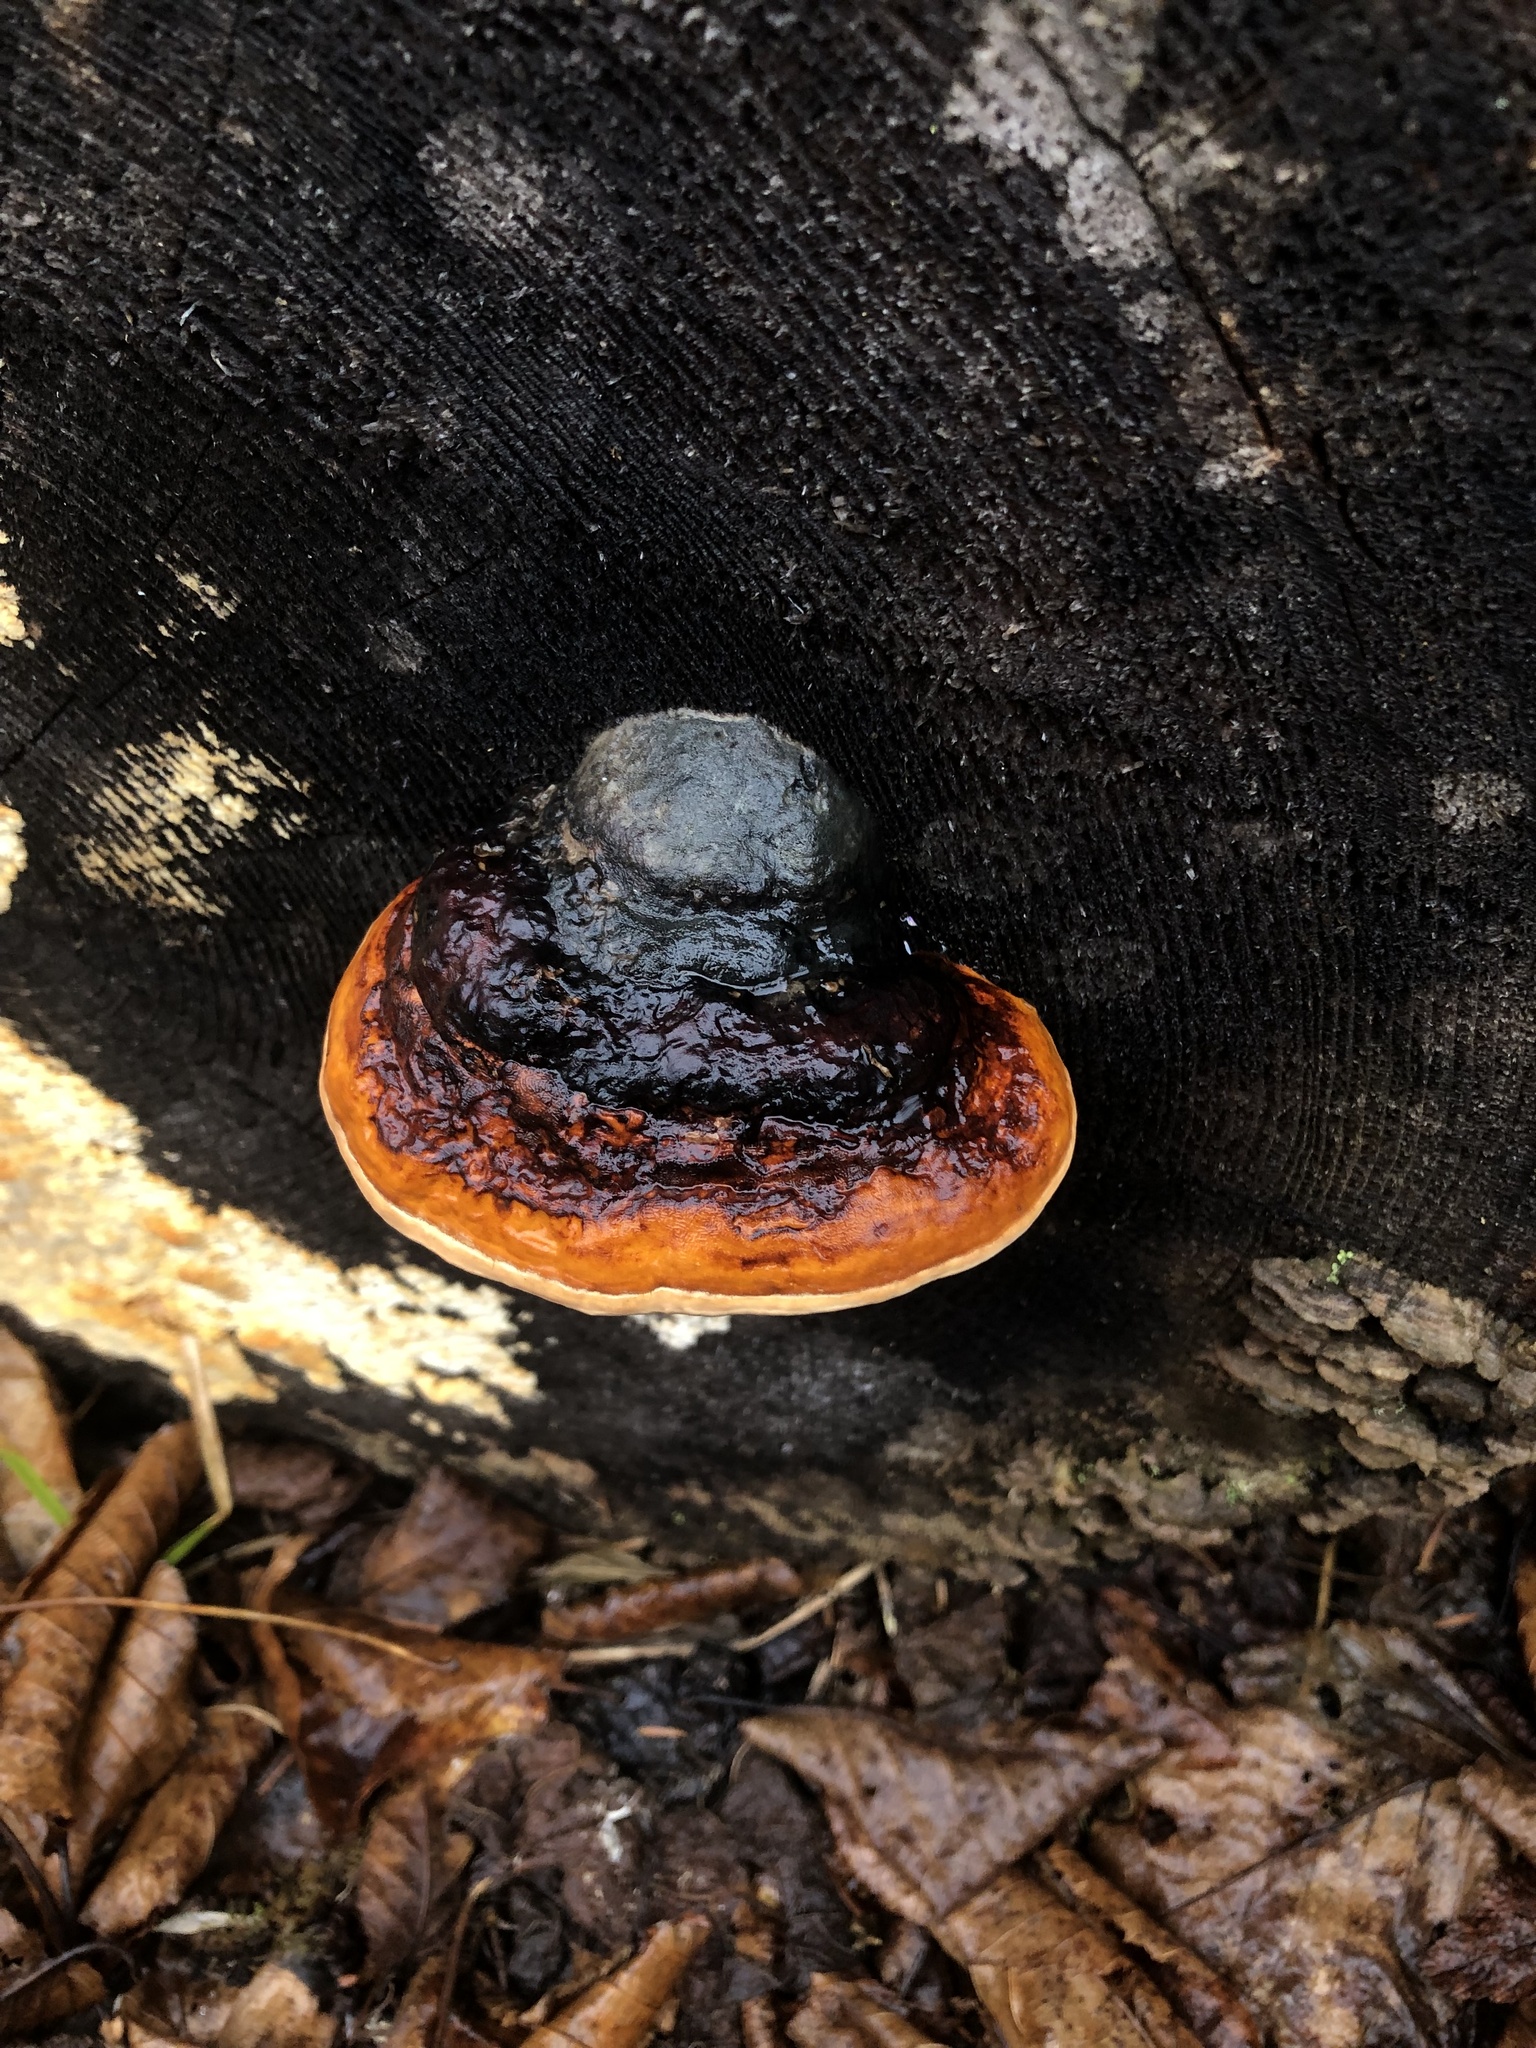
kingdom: Fungi
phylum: Basidiomycota
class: Agaricomycetes
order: Polyporales
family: Fomitopsidaceae
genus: Fomitopsis
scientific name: Fomitopsis mounceae
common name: Northern red belt
